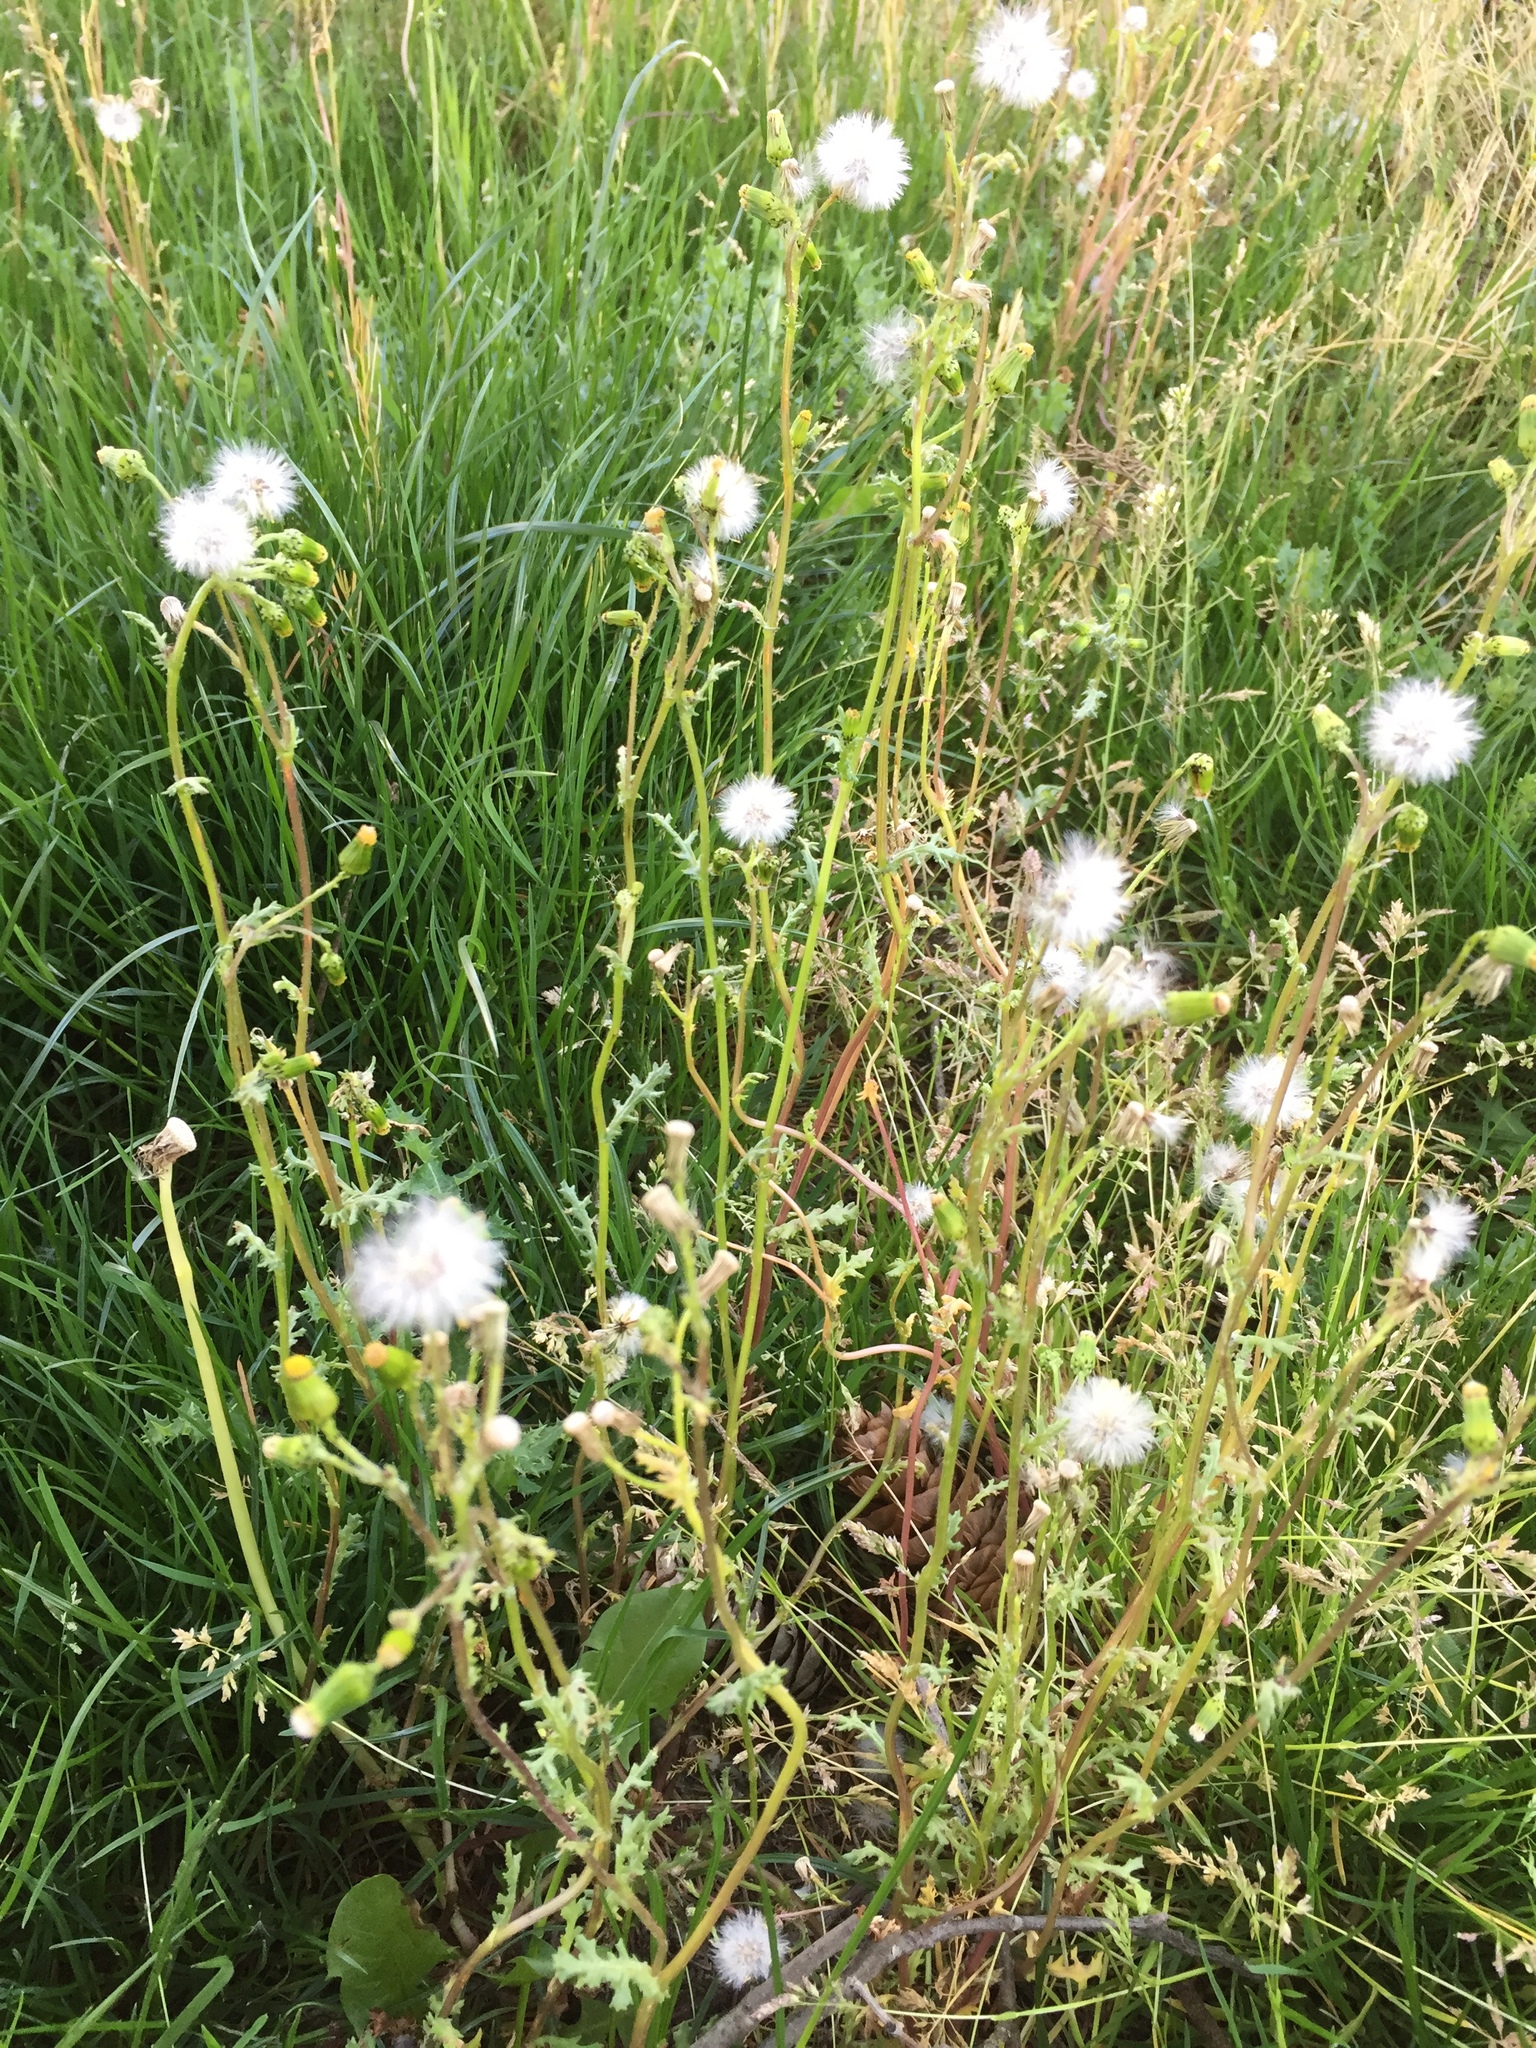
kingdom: Plantae
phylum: Tracheophyta
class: Magnoliopsida
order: Asterales
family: Asteraceae
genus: Senecio
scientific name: Senecio vulgaris
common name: Old-man-in-the-spring
